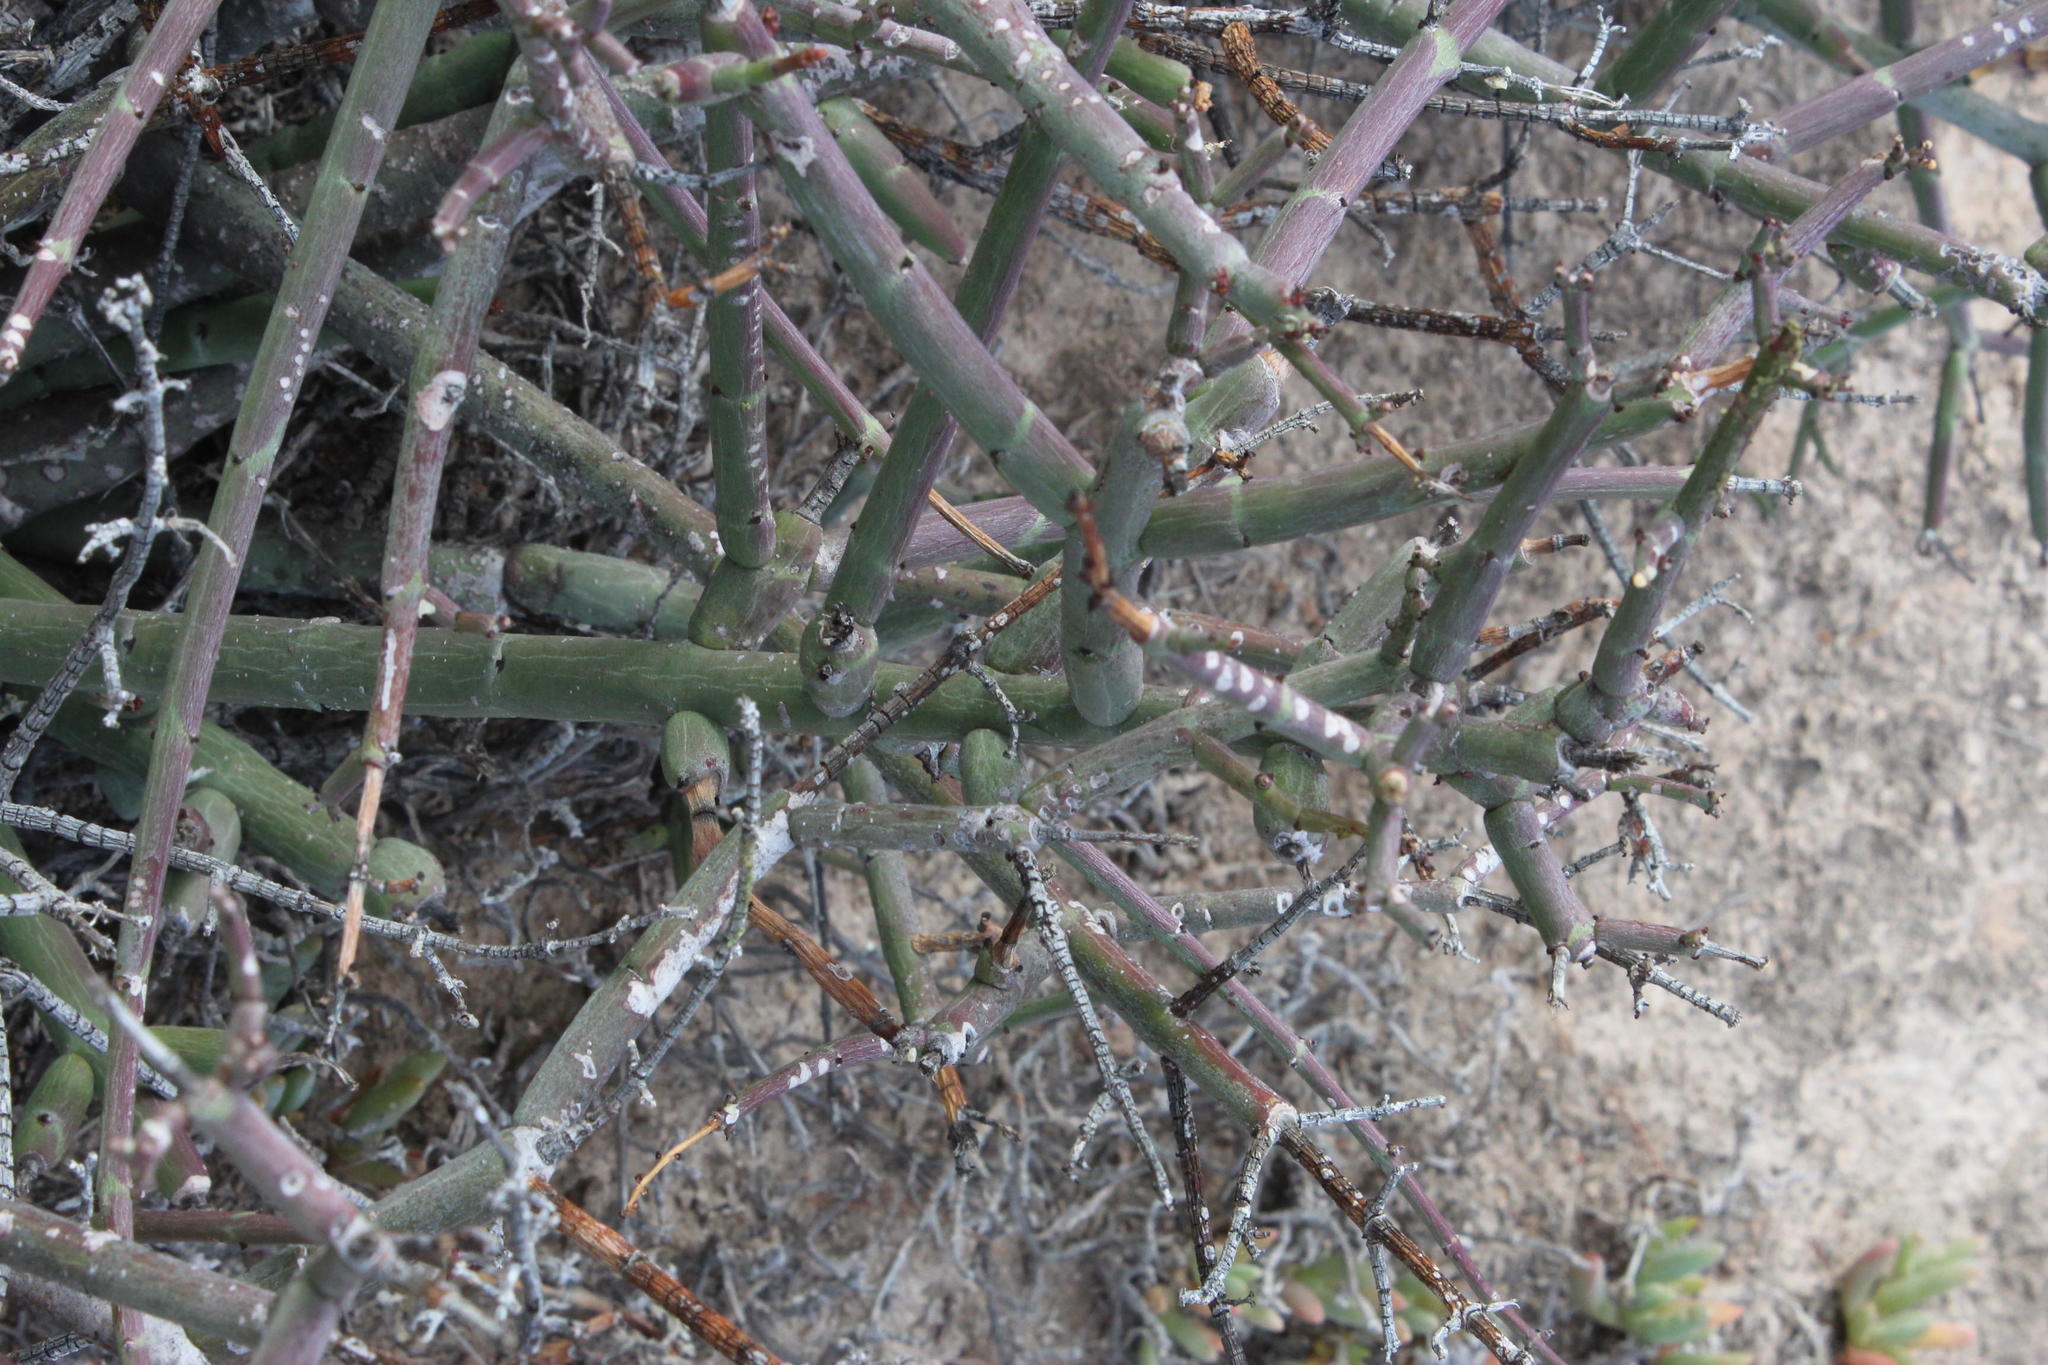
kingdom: Plantae
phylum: Tracheophyta
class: Magnoliopsida
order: Malpighiales
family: Euphorbiaceae
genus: Euphorbia
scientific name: Euphorbia rhombifolia
